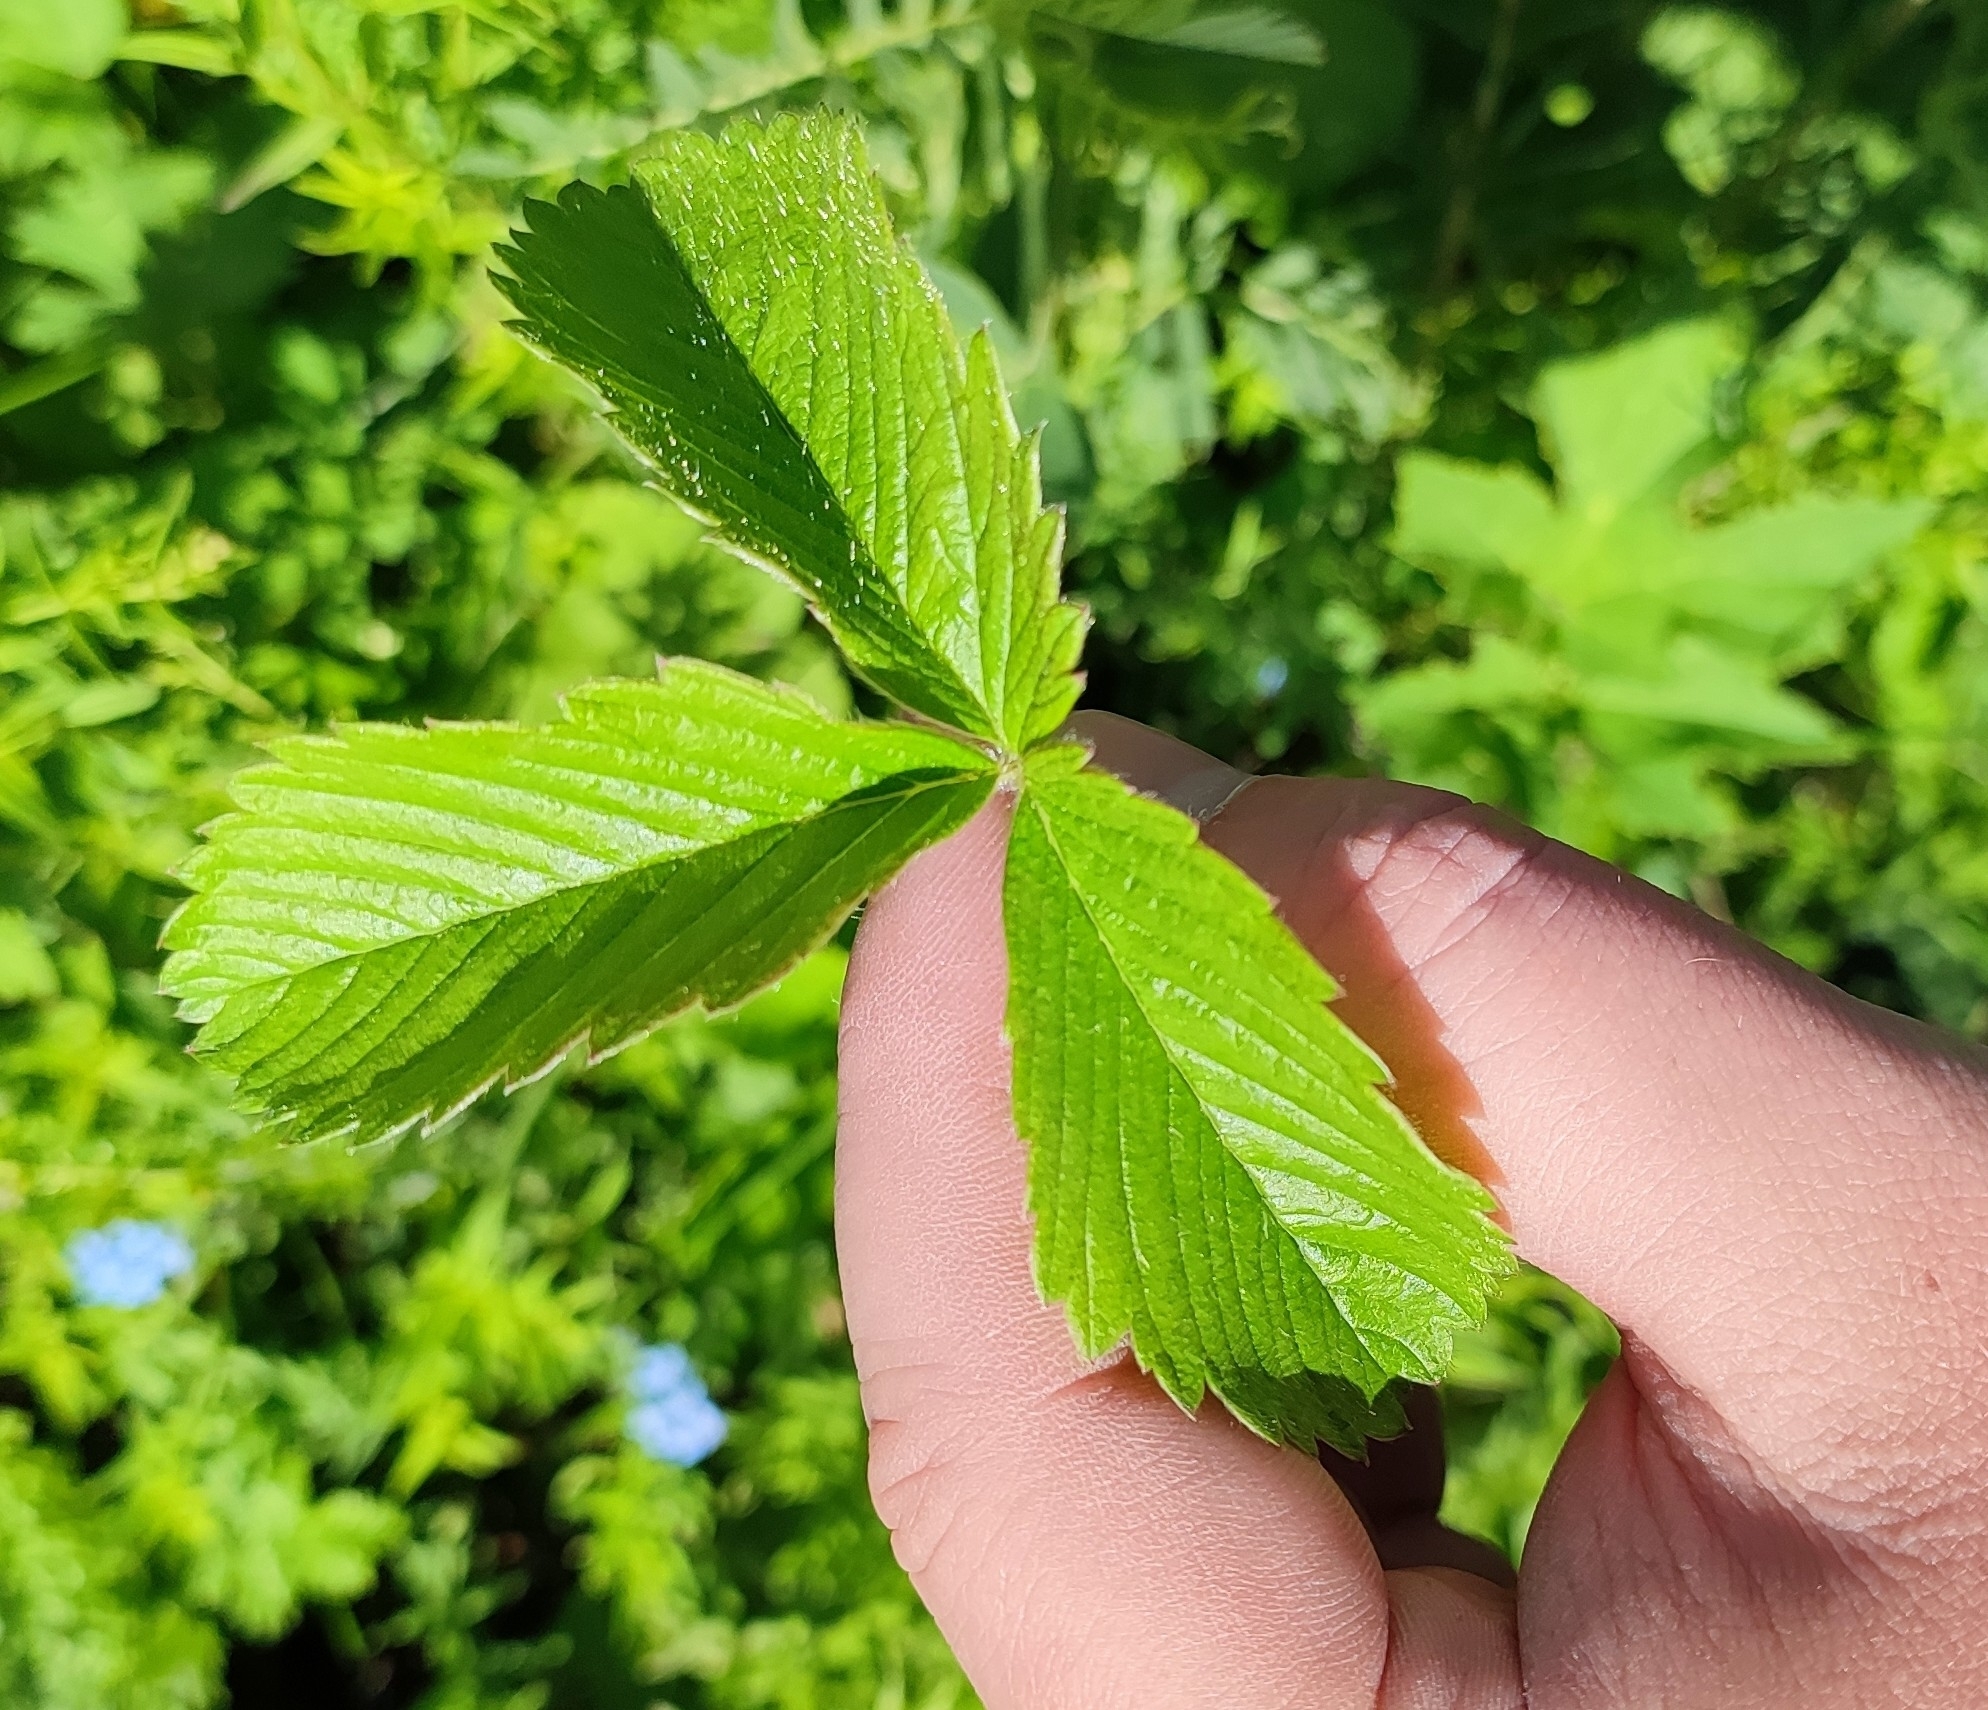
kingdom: Plantae
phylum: Tracheophyta
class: Magnoliopsida
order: Rosales
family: Rosaceae
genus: Fragaria
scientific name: Fragaria viridis
